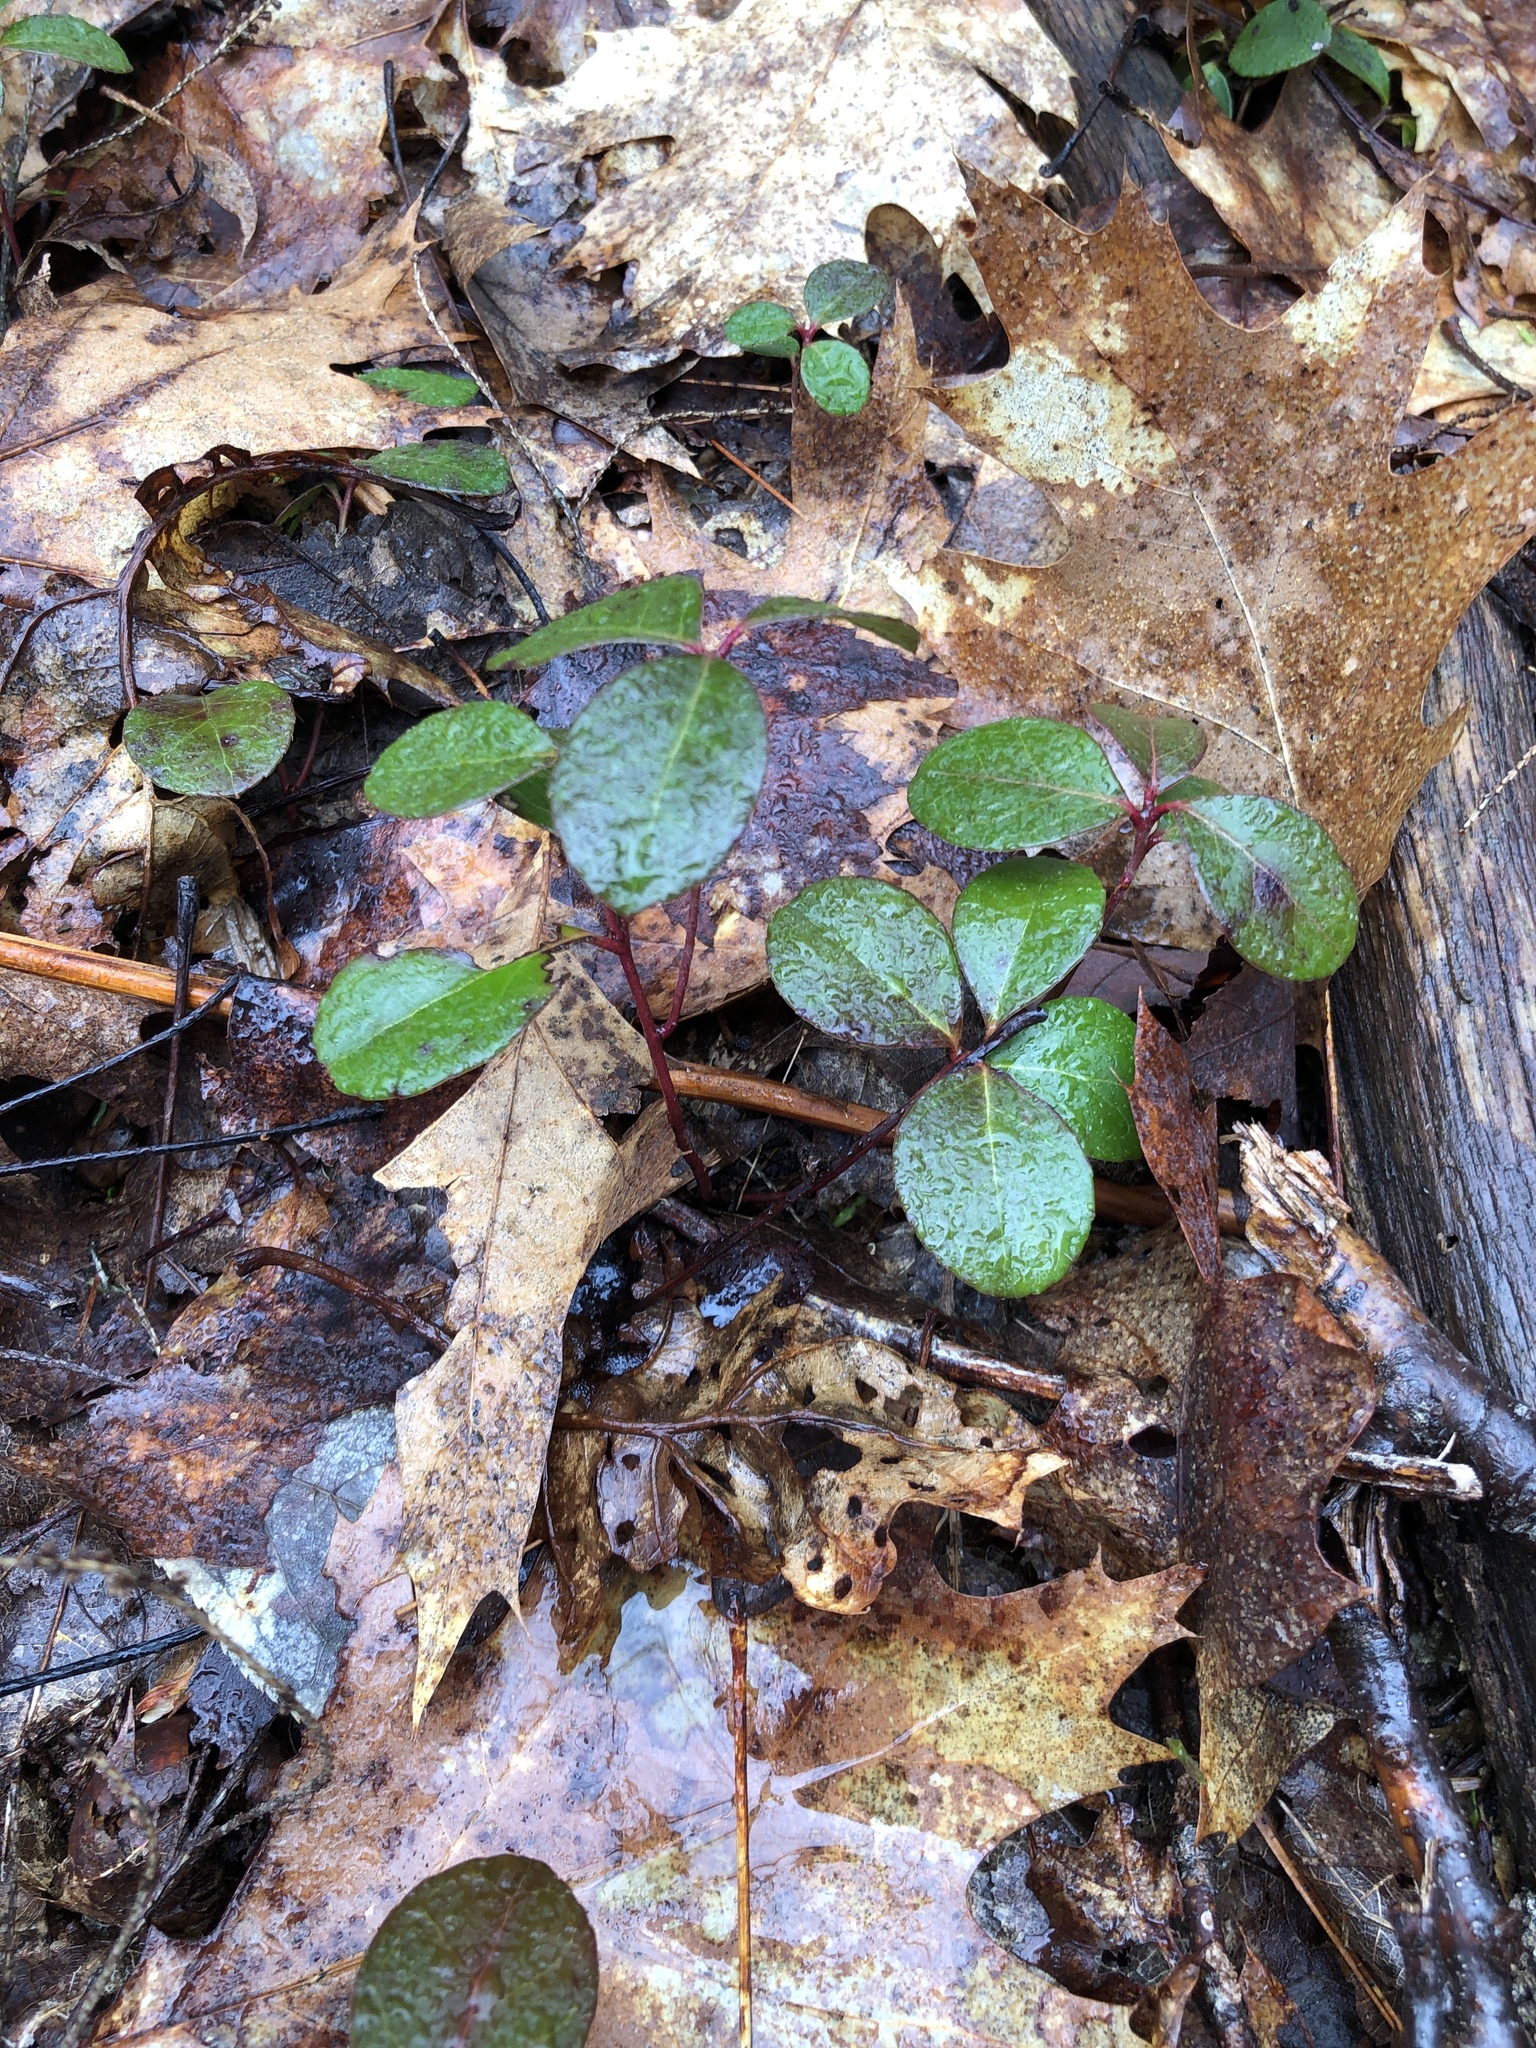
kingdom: Plantae
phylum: Tracheophyta
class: Magnoliopsida
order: Ericales
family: Ericaceae
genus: Gaultheria
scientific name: Gaultheria procumbens
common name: Checkerberry
